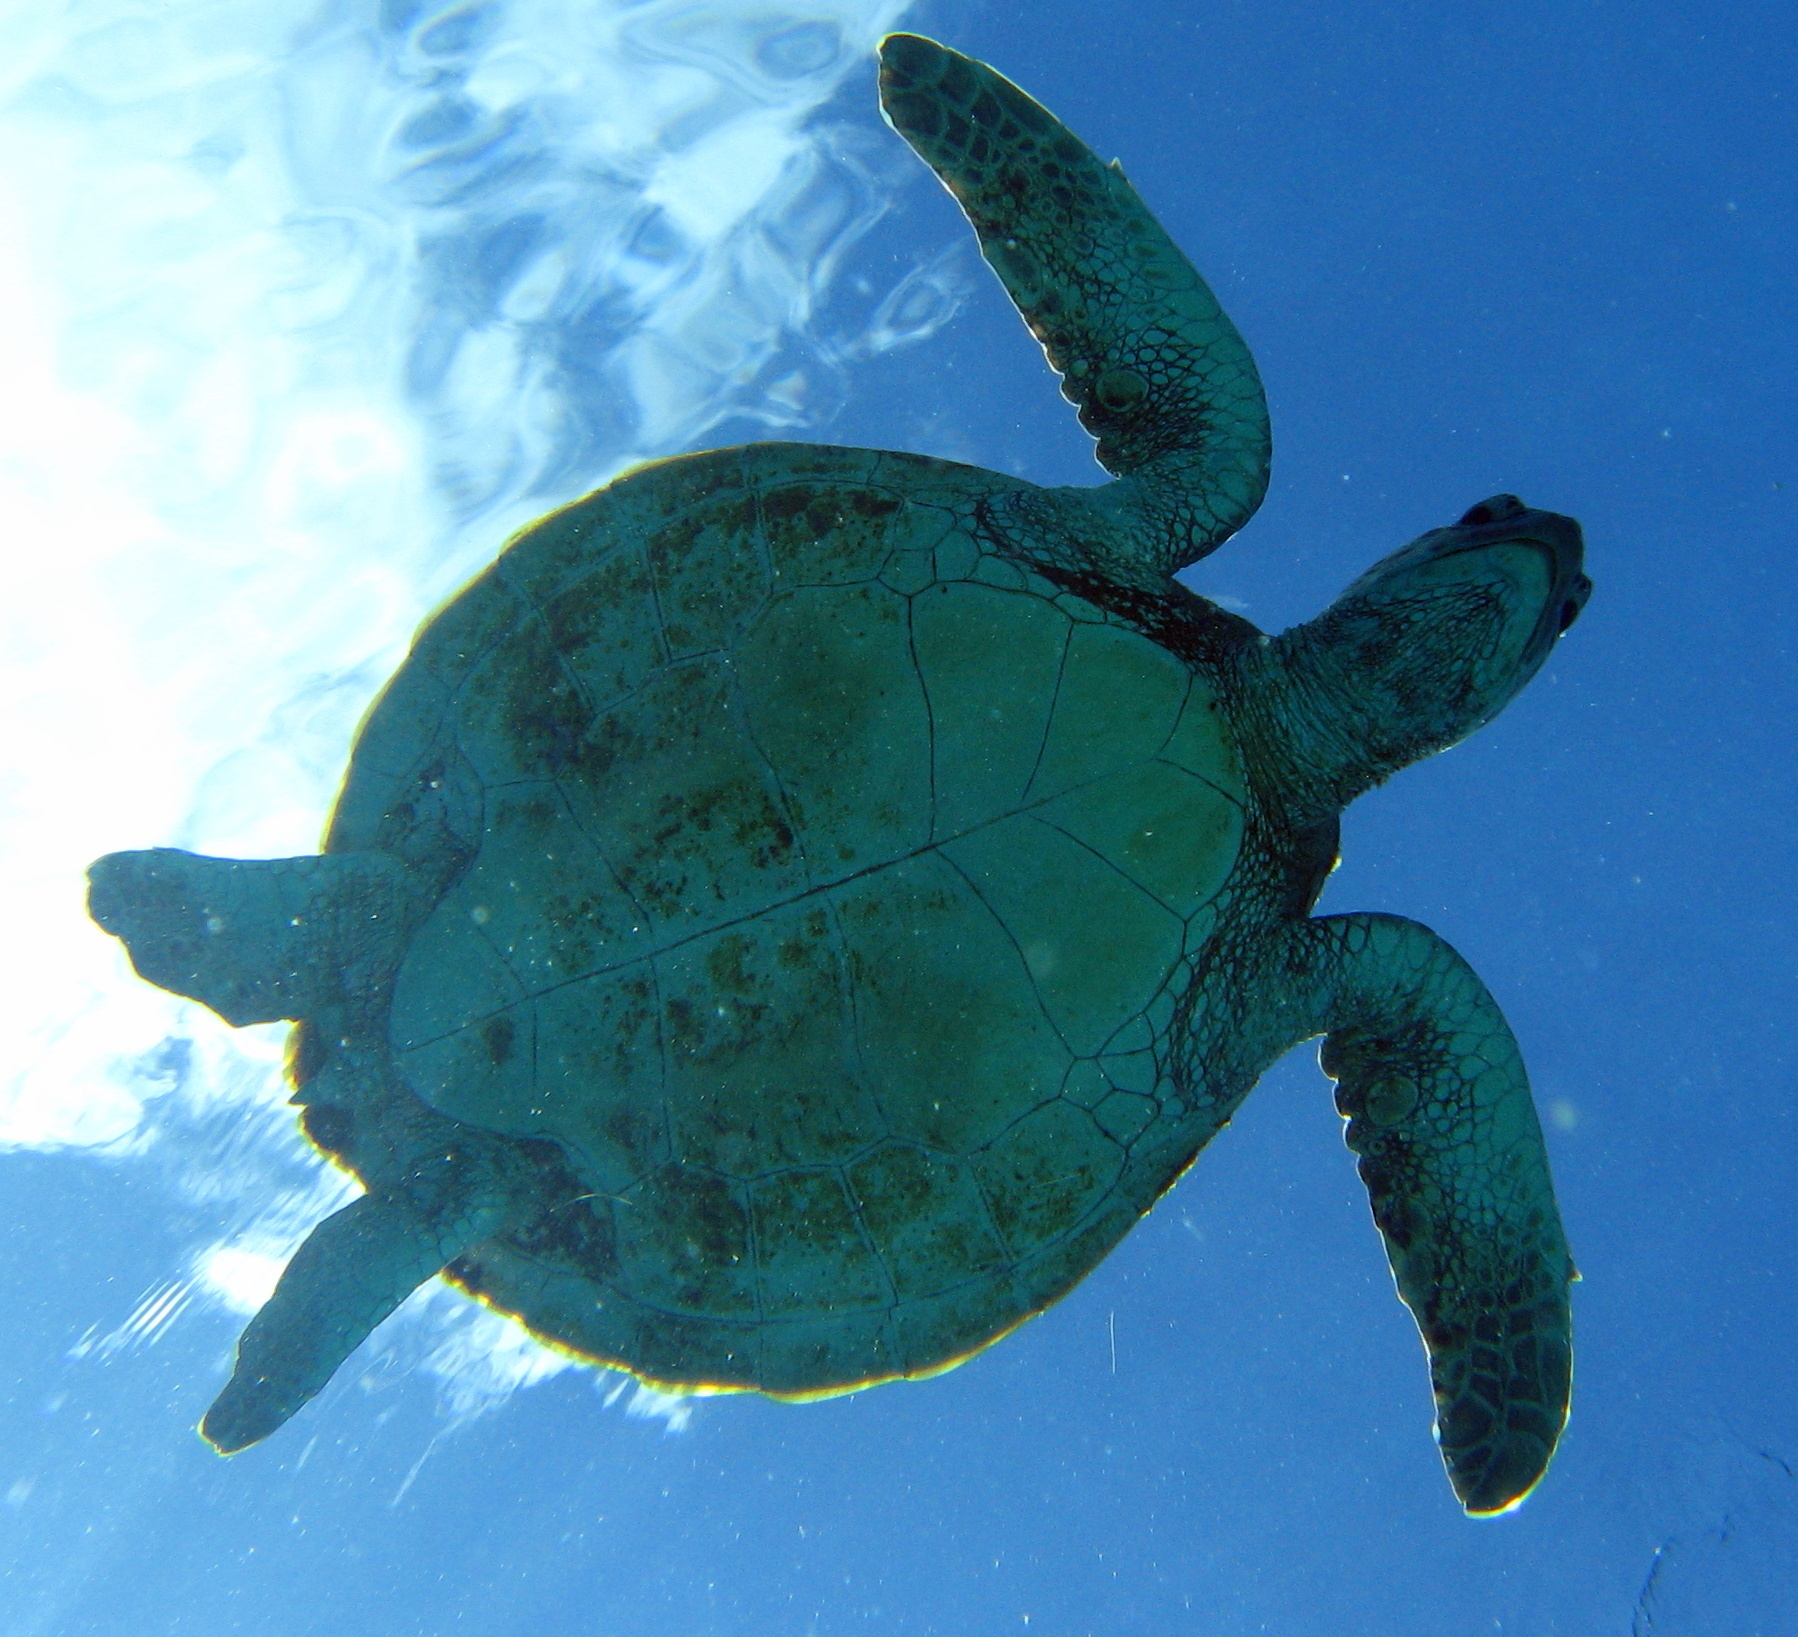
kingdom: Animalia
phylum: Chordata
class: Testudines
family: Cheloniidae
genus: Chelonia
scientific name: Chelonia mydas
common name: Green turtle
